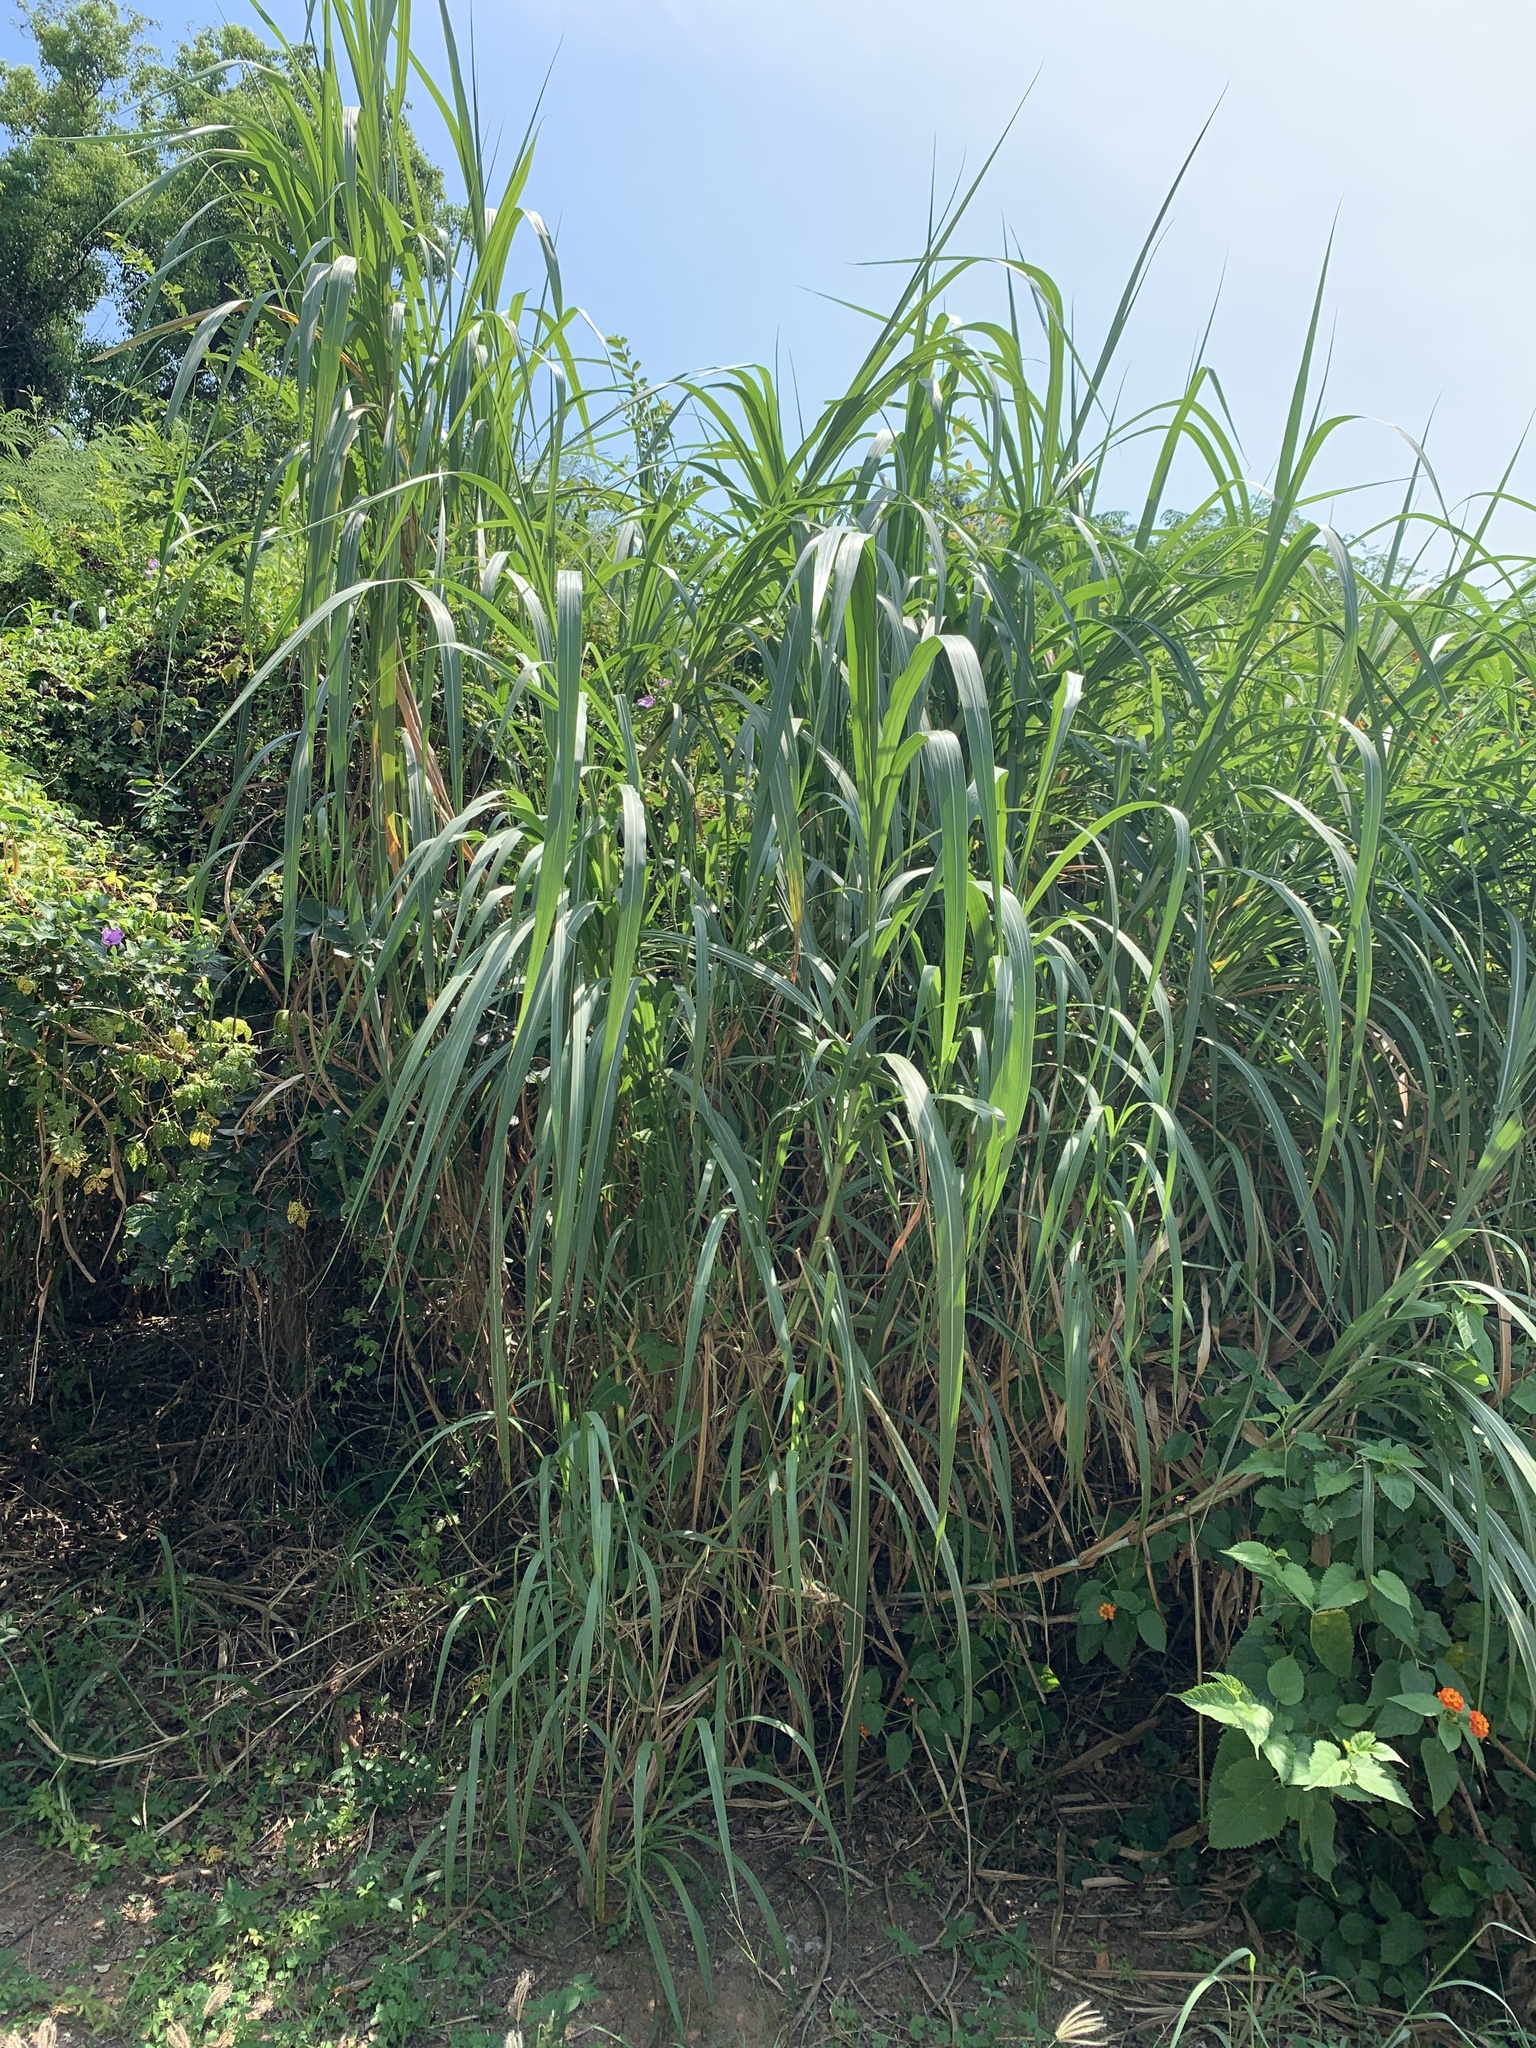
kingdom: Plantae
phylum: Tracheophyta
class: Liliopsida
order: Poales
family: Poaceae
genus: Cenchrus
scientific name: Cenchrus purpureus
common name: Elephant grass
